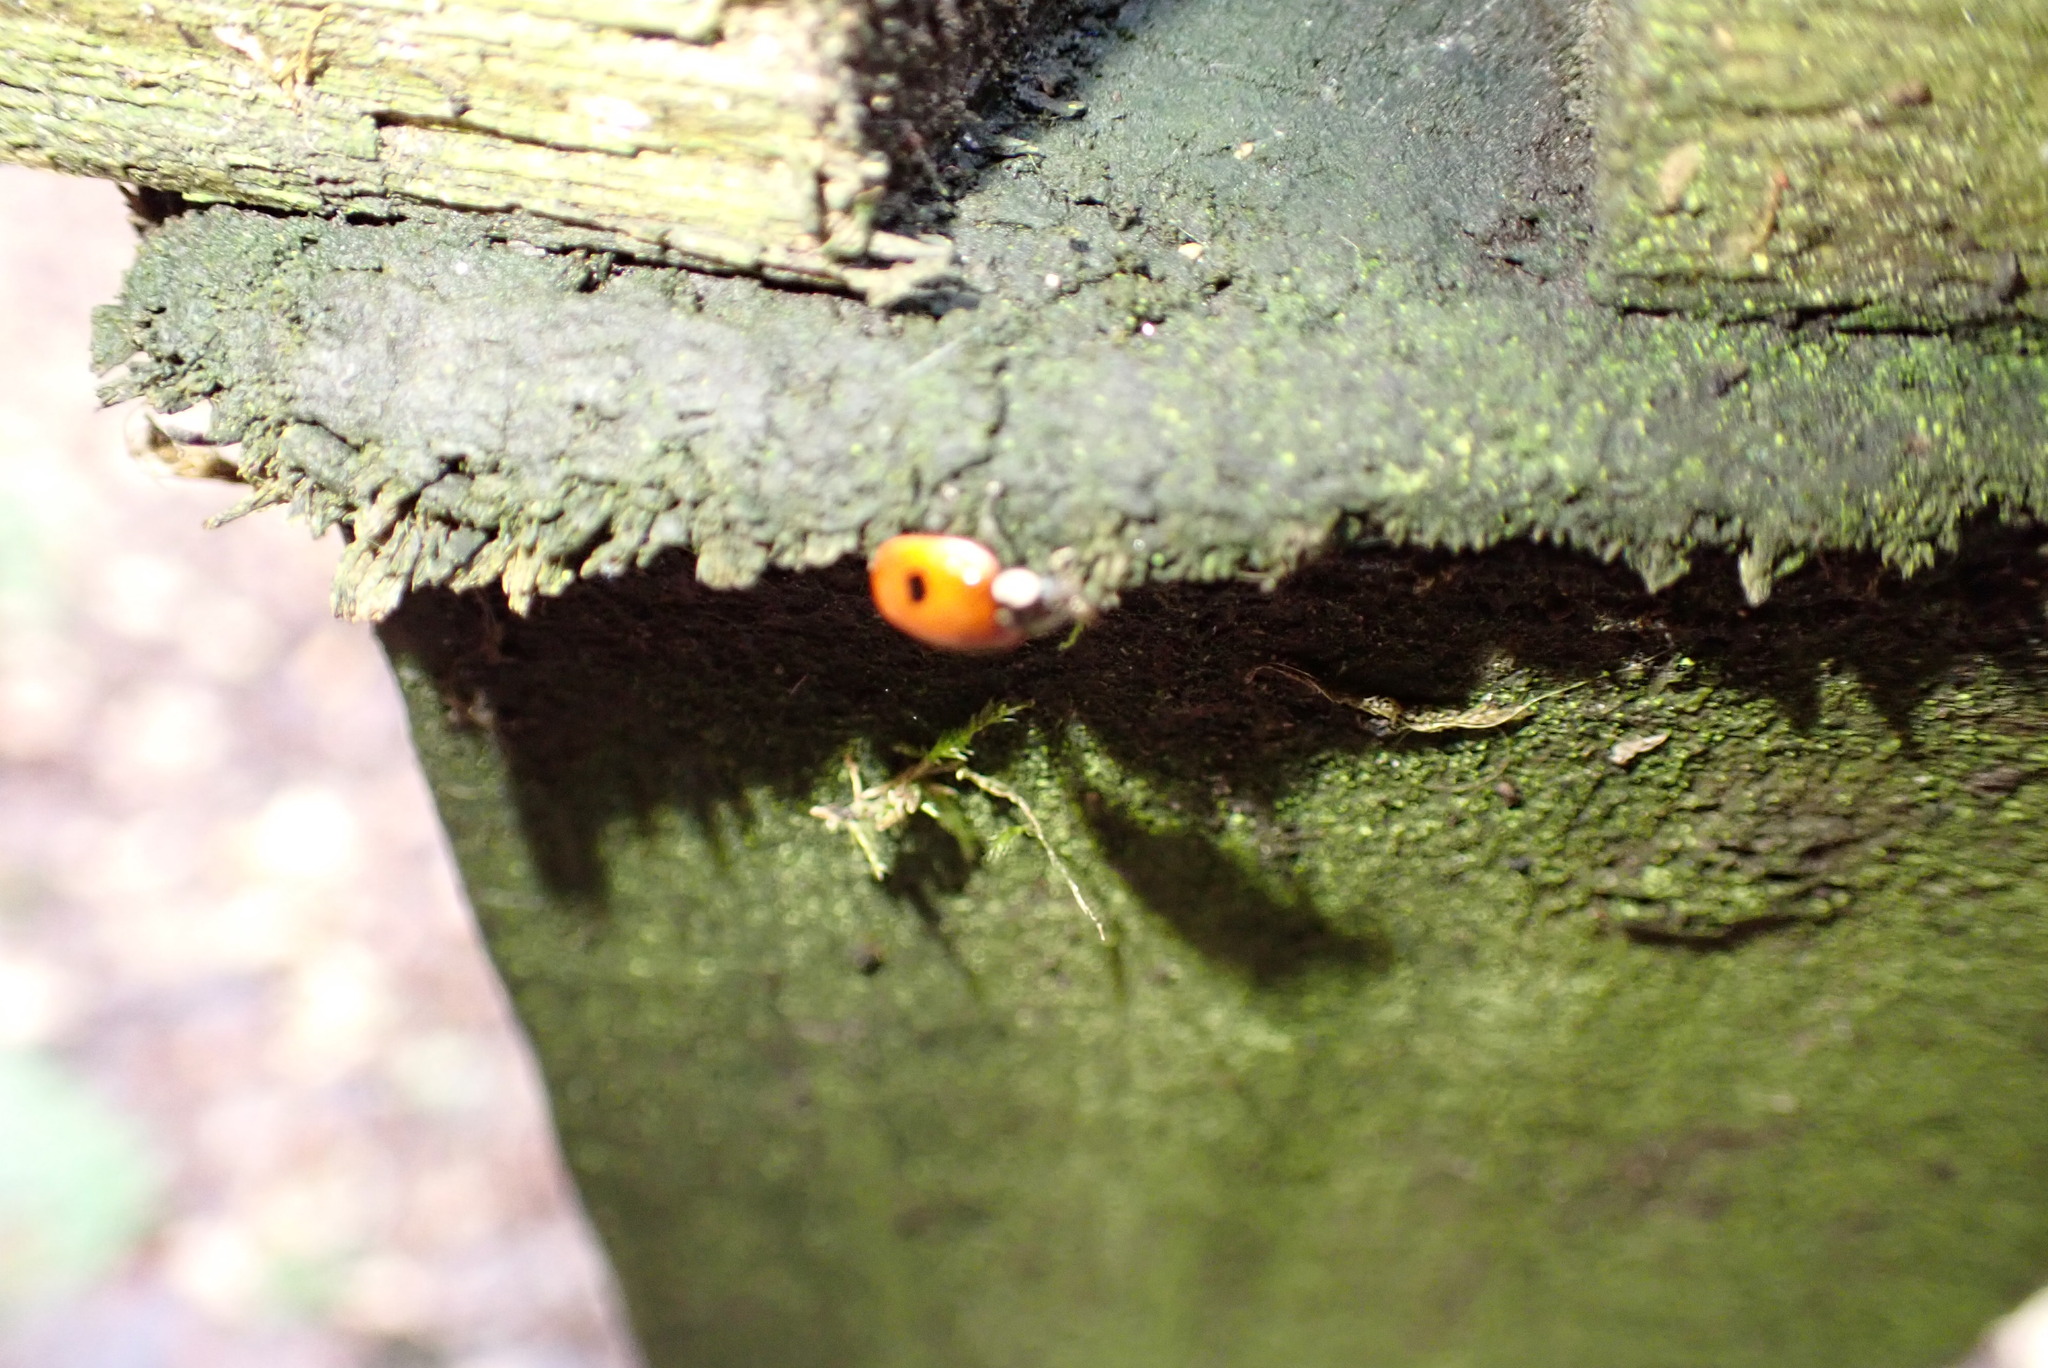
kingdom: Animalia
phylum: Arthropoda
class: Insecta
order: Coleoptera
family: Coccinellidae
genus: Adalia
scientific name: Adalia bipunctata
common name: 2-spot ladybird
